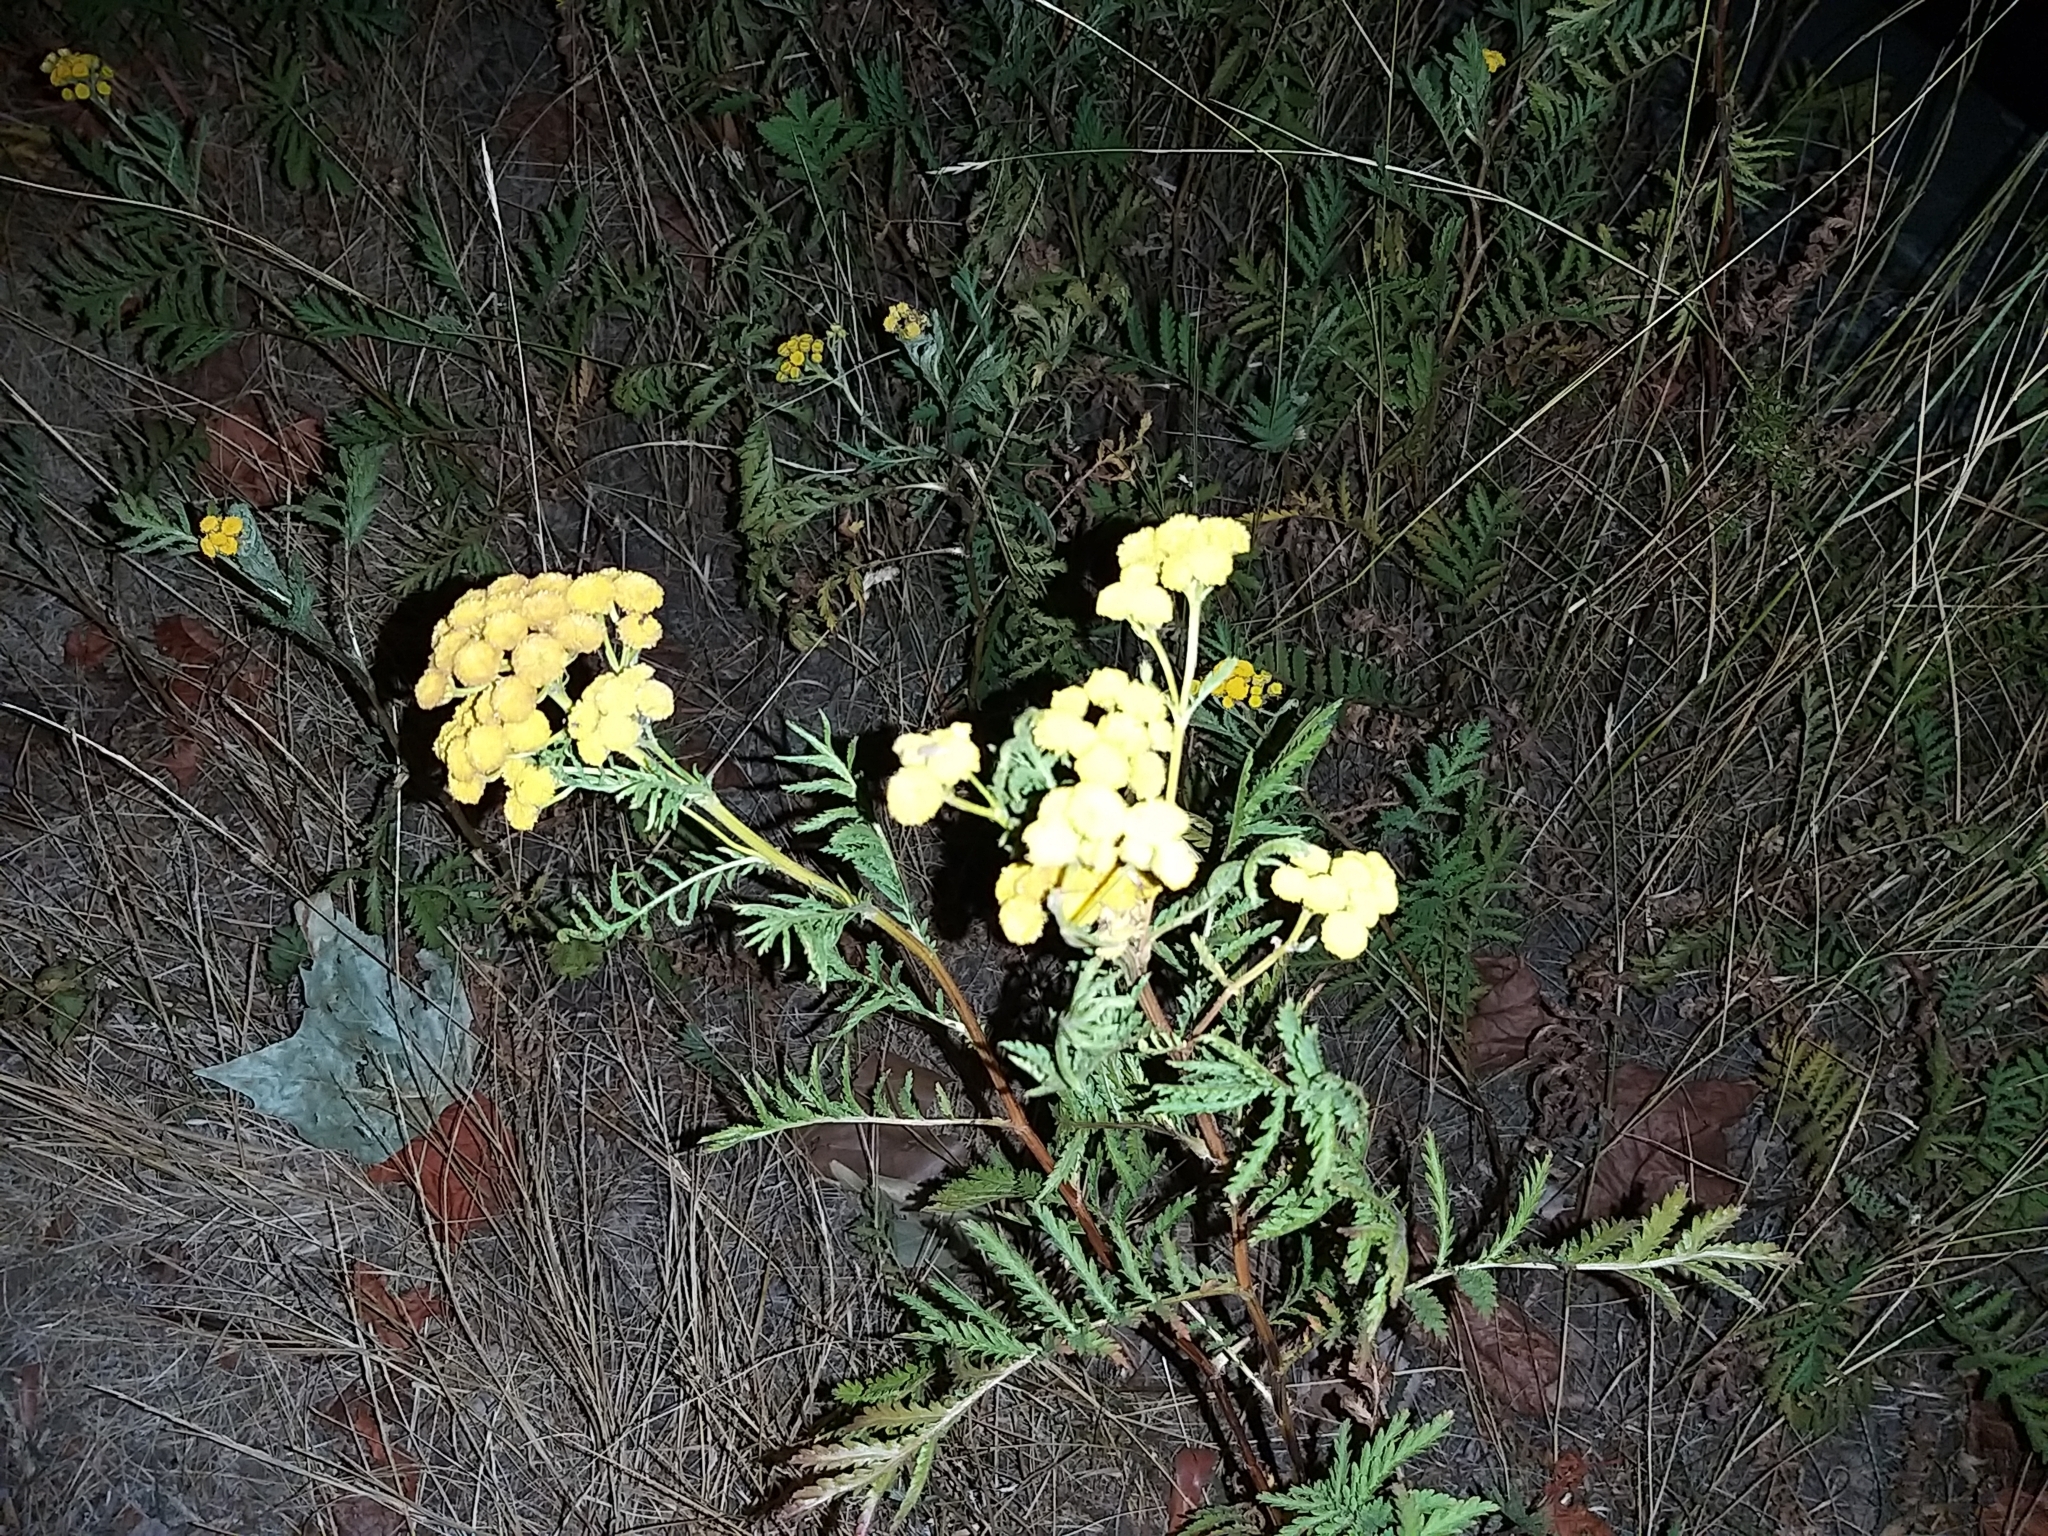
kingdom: Plantae
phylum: Tracheophyta
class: Magnoliopsida
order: Asterales
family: Asteraceae
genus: Tanacetum
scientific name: Tanacetum vulgare
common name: Common tansy
